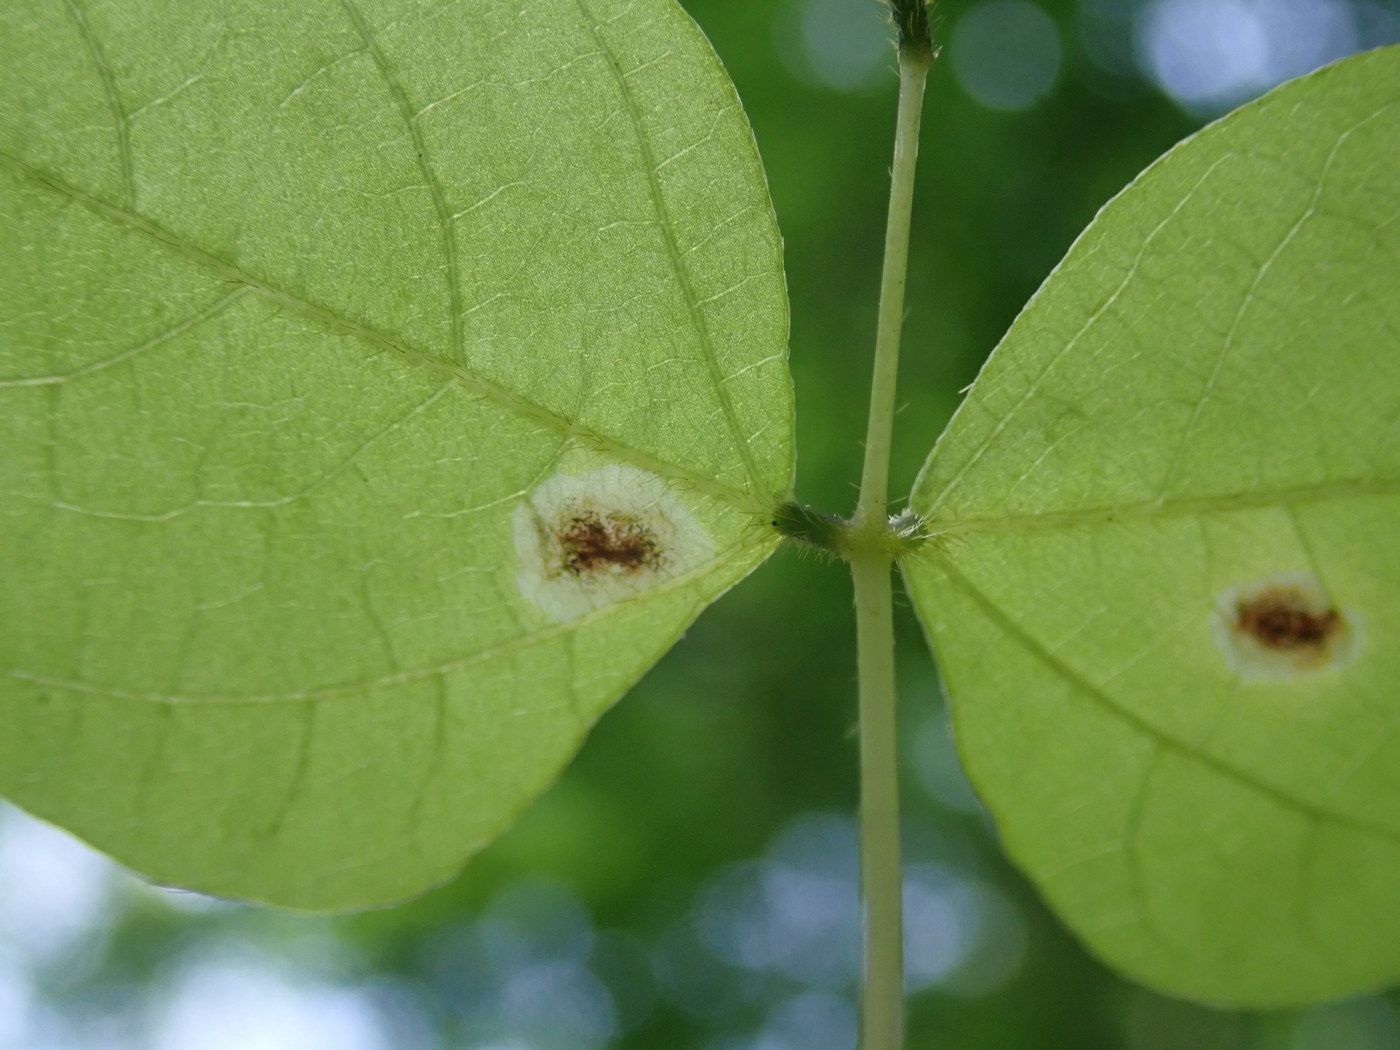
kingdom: Animalia
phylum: Arthropoda
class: Insecta
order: Lepidoptera
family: Gracillariidae
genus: Leucanthiza
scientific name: Leucanthiza amphicarpeaefoliella
